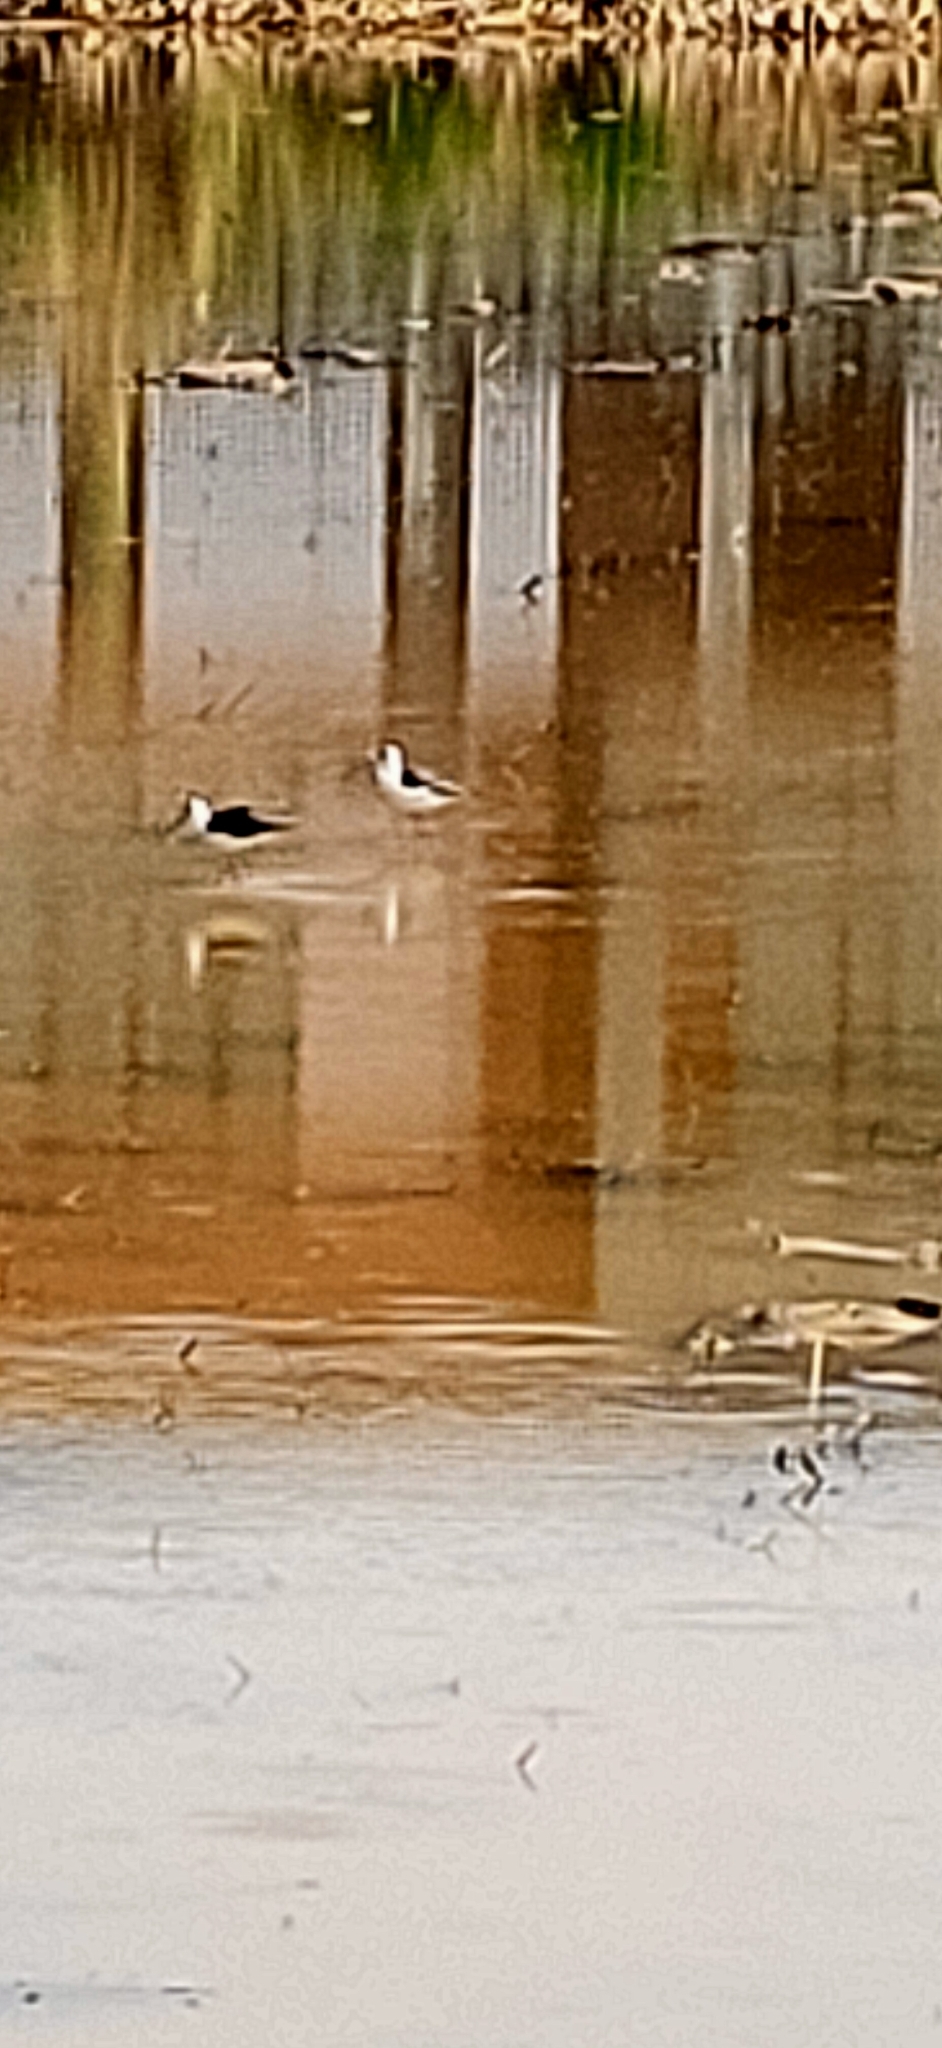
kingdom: Animalia
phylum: Chordata
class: Aves
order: Charadriiformes
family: Recurvirostridae
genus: Himantopus
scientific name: Himantopus himantopus
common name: Black-winged stilt
